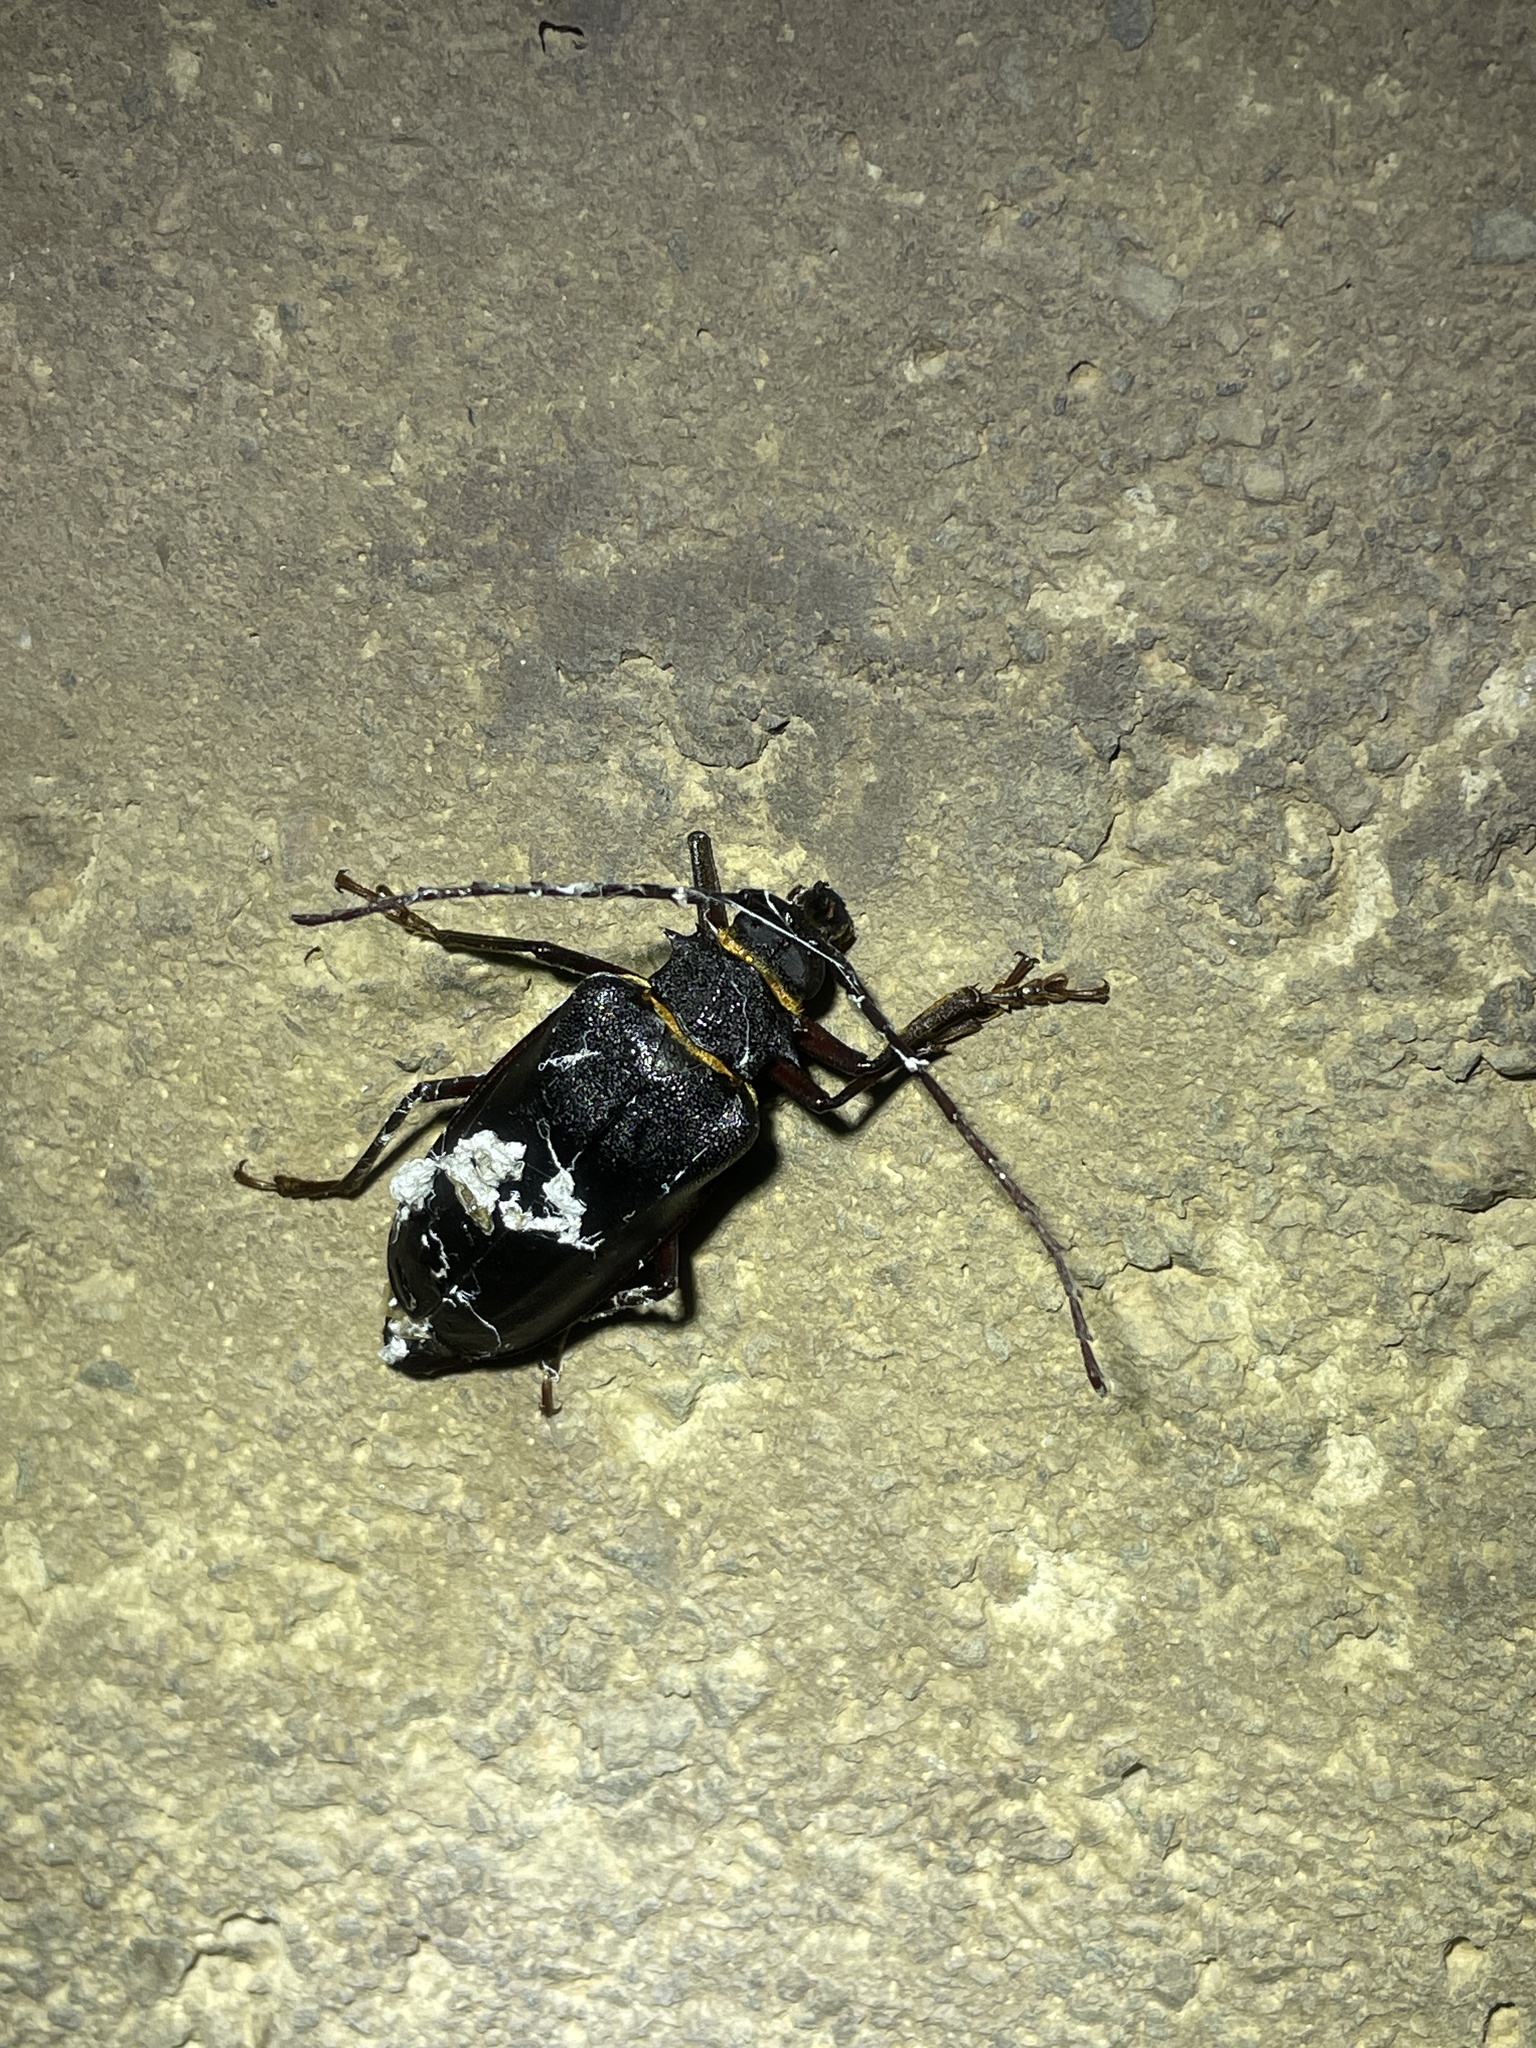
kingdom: Animalia
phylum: Arthropoda
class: Insecta
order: Coleoptera
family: Cerambycidae
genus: Priotyrannus
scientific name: Priotyrannus closteroides
